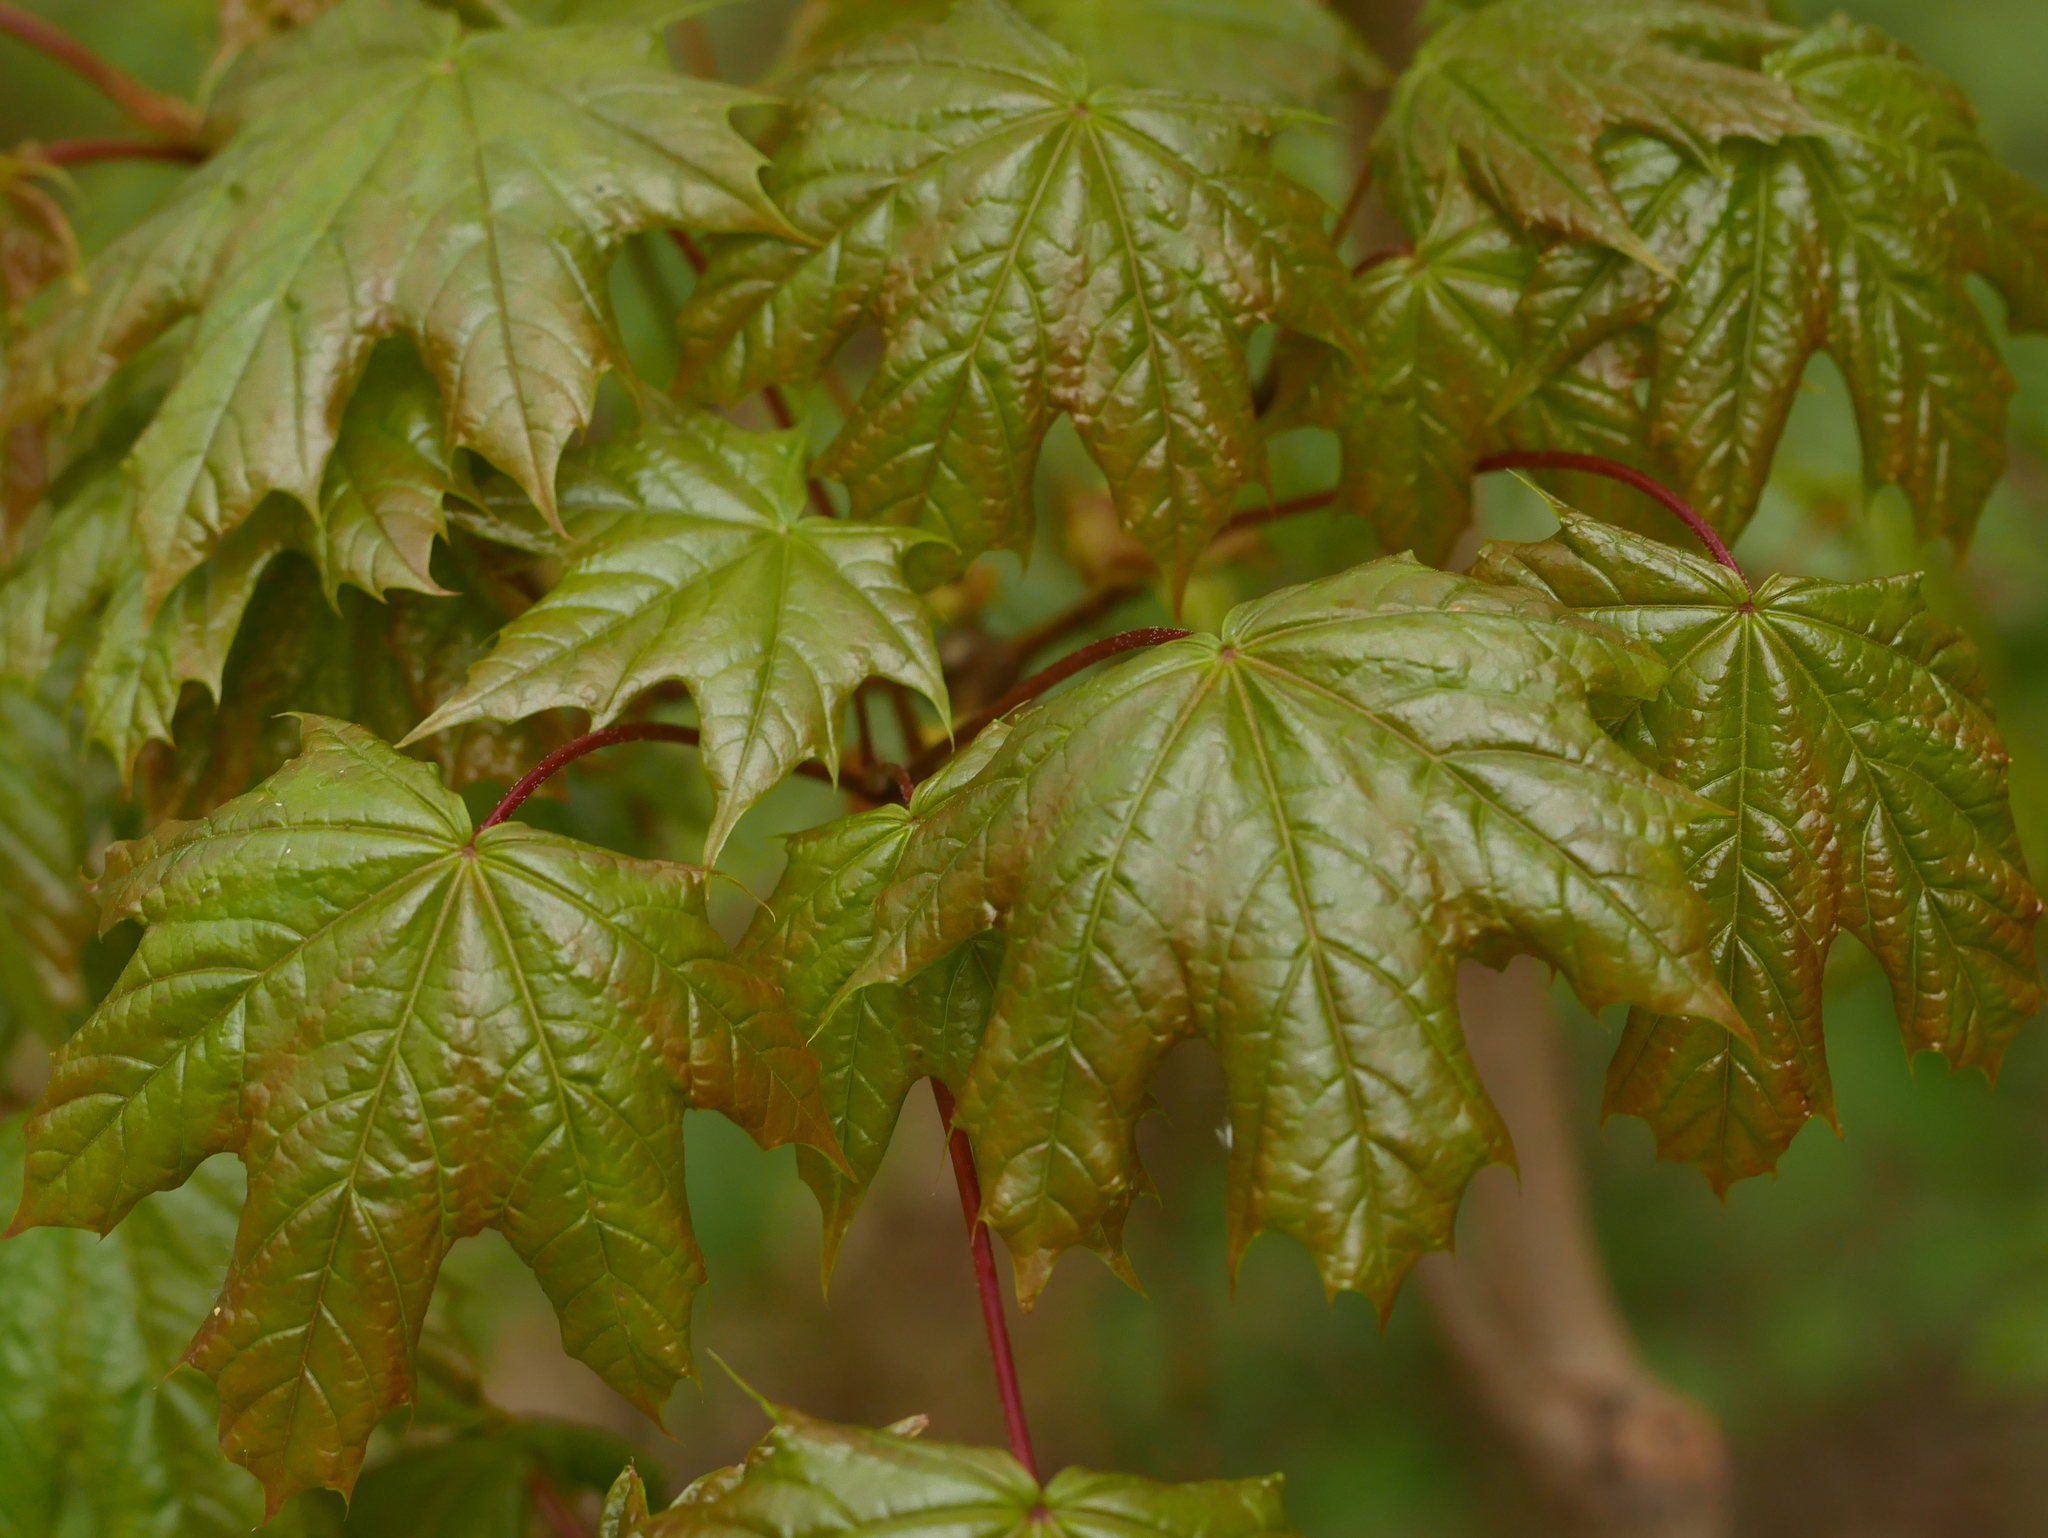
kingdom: Plantae
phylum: Tracheophyta
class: Magnoliopsida
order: Sapindales
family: Sapindaceae
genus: Acer
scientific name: Acer platanoides
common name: Norway maple
